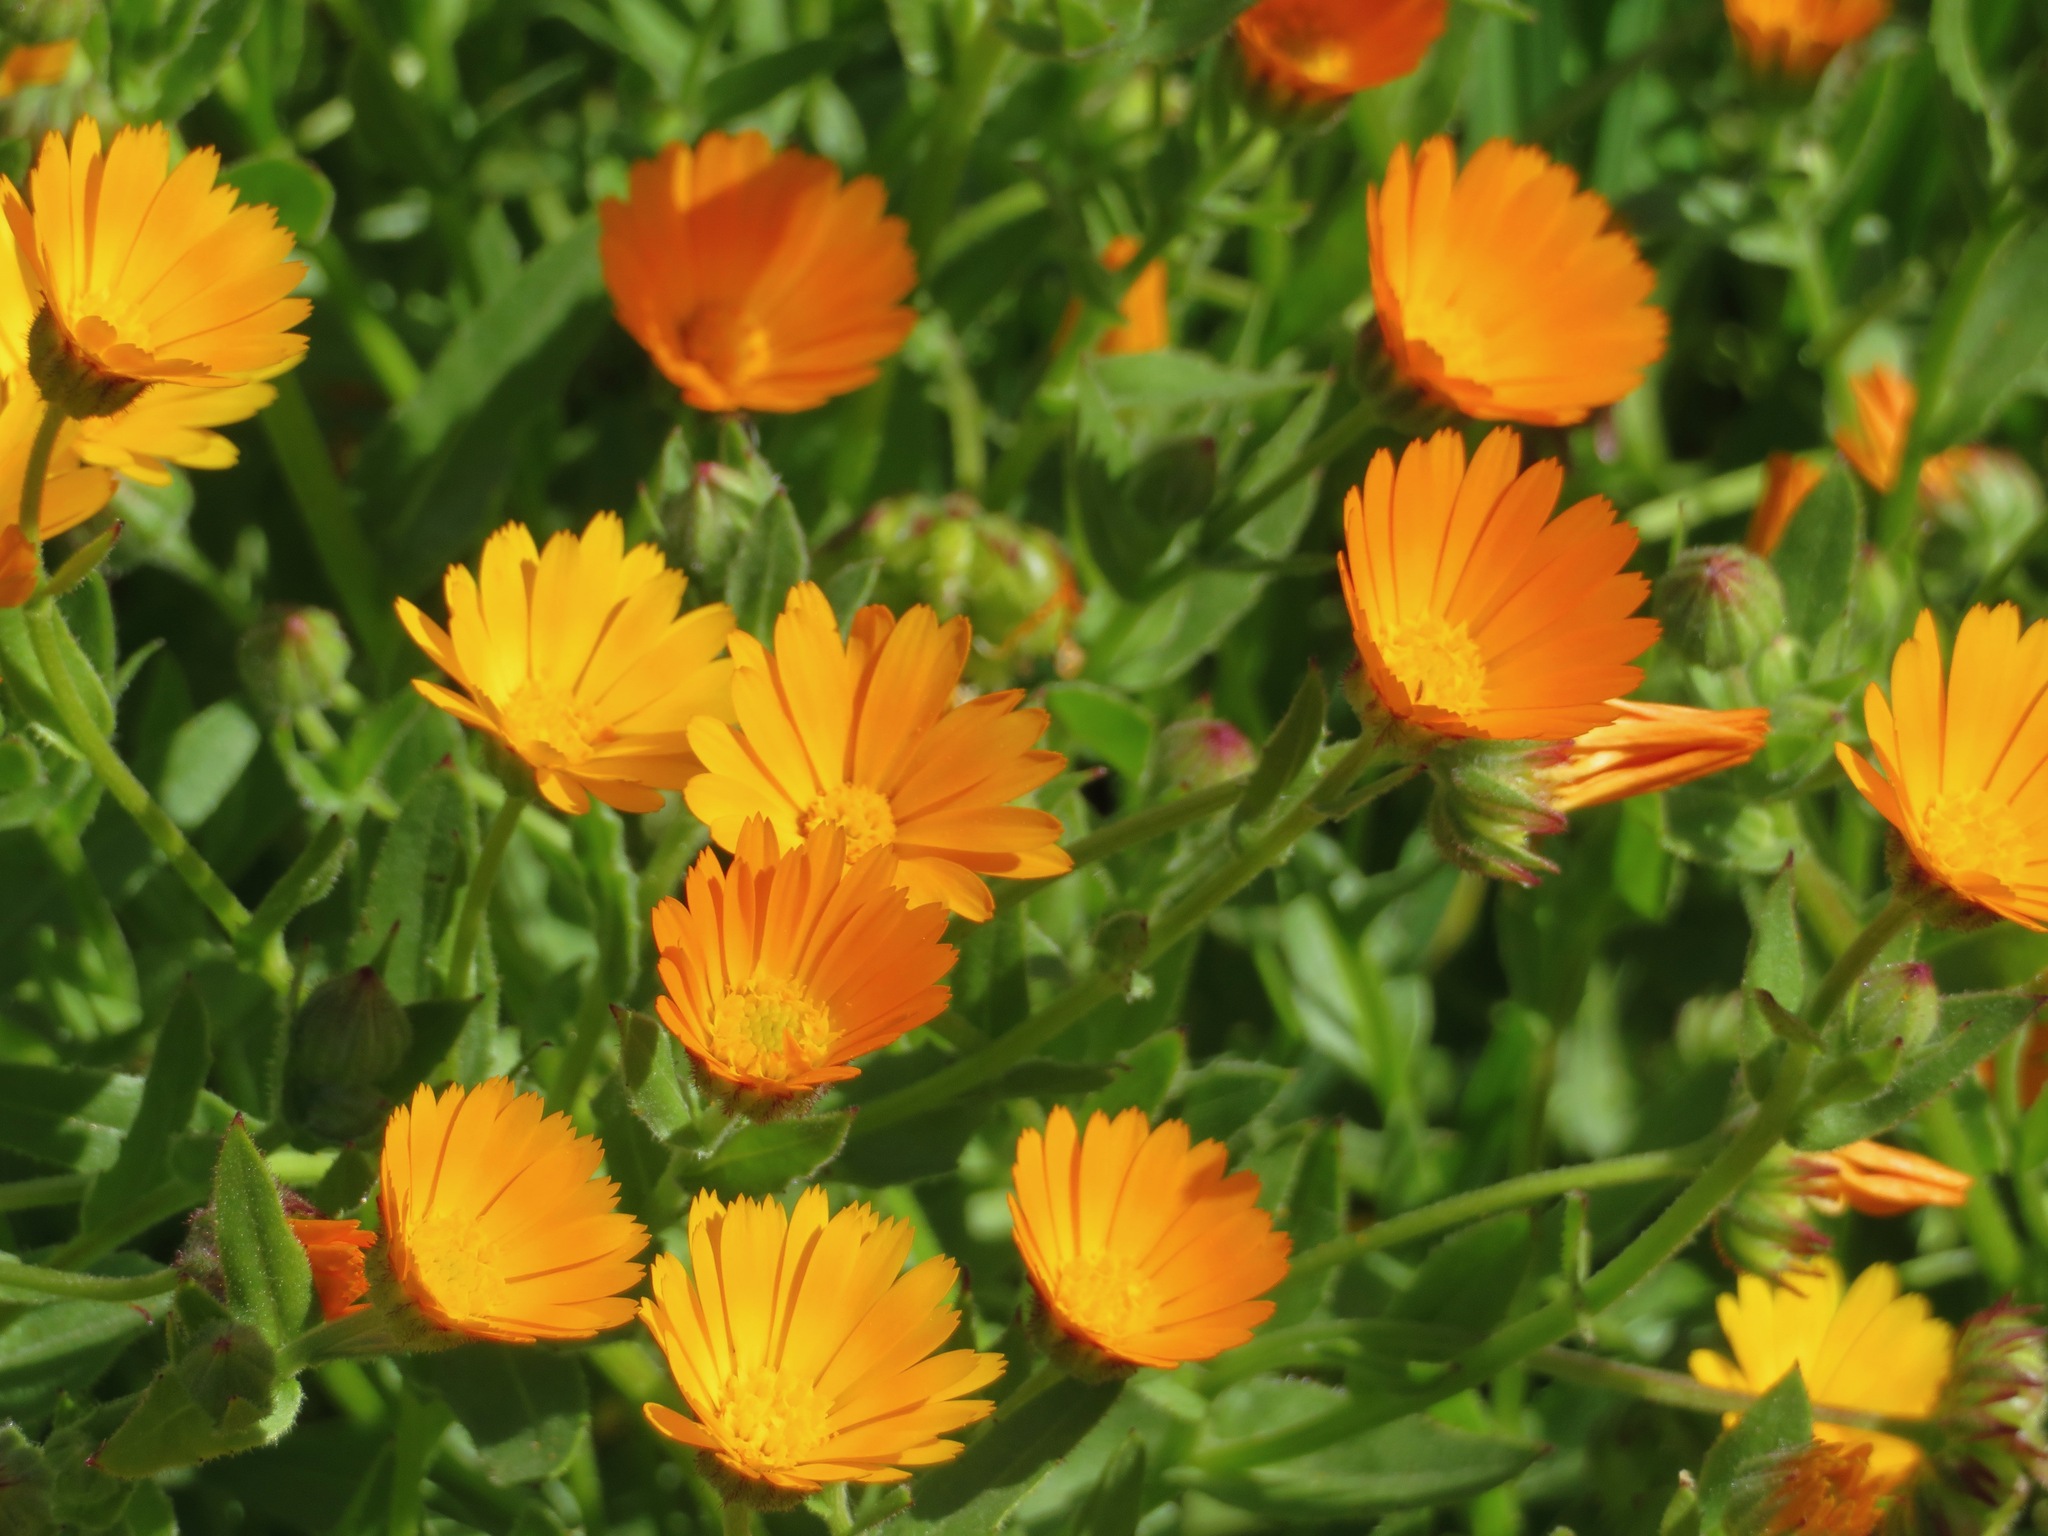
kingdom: Plantae
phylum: Tracheophyta
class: Magnoliopsida
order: Asterales
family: Asteraceae
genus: Calendula
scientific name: Calendula arvensis
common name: Field marigold
